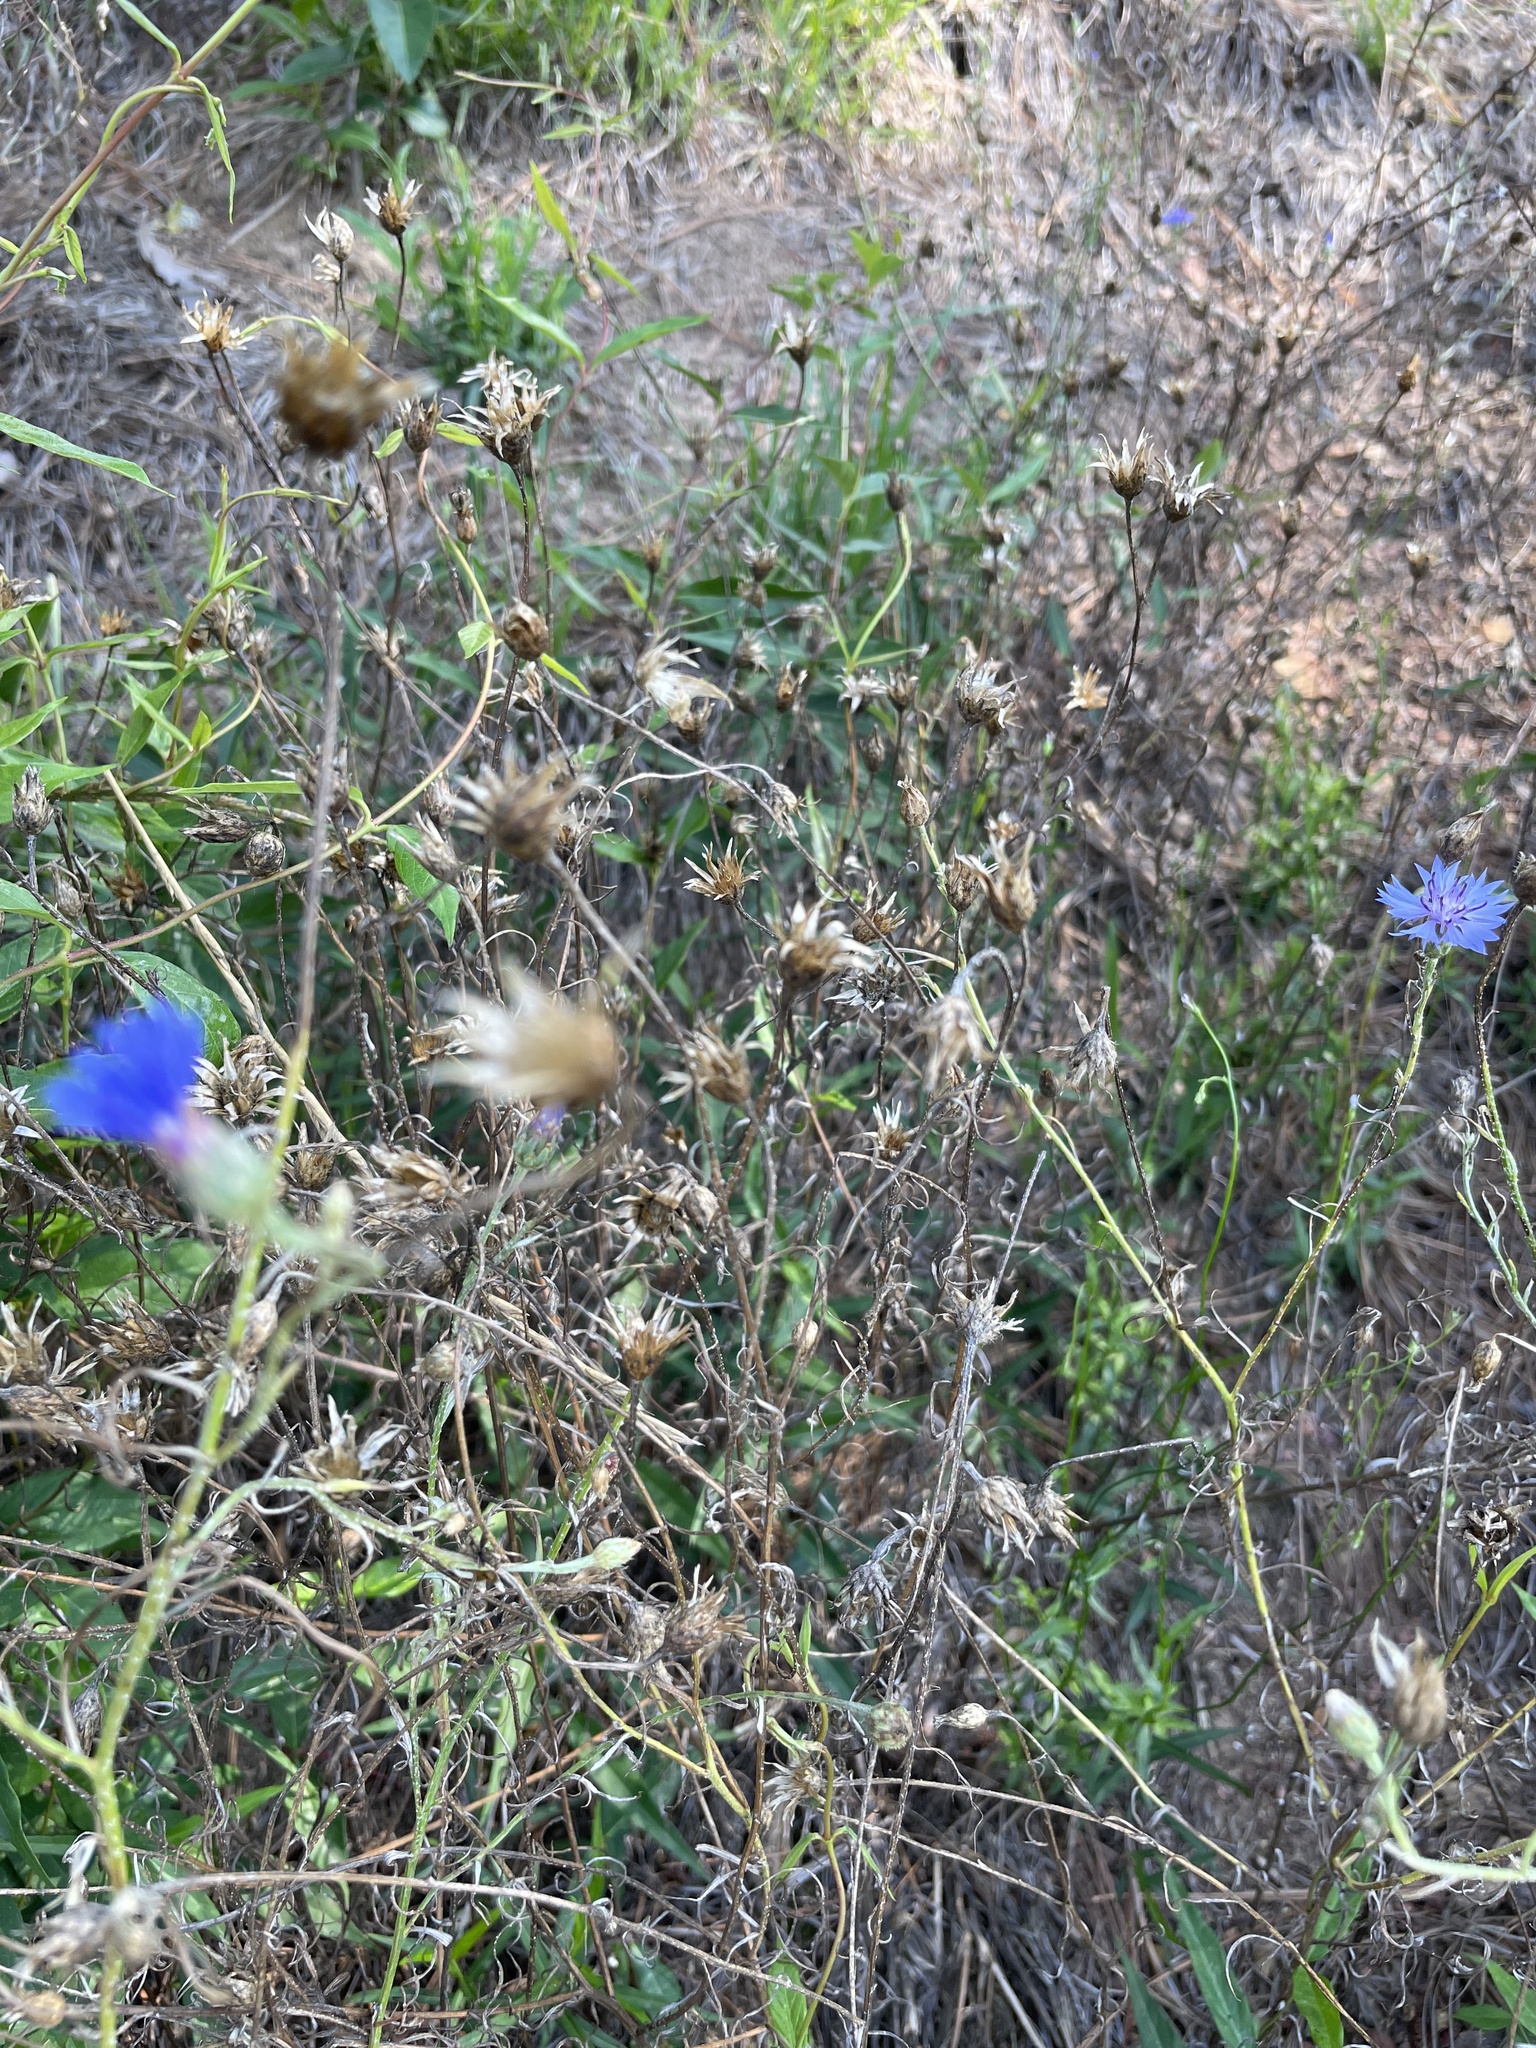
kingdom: Plantae
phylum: Tracheophyta
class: Magnoliopsida
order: Asterales
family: Asteraceae
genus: Centaurea
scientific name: Centaurea cyanus
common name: Cornflower
